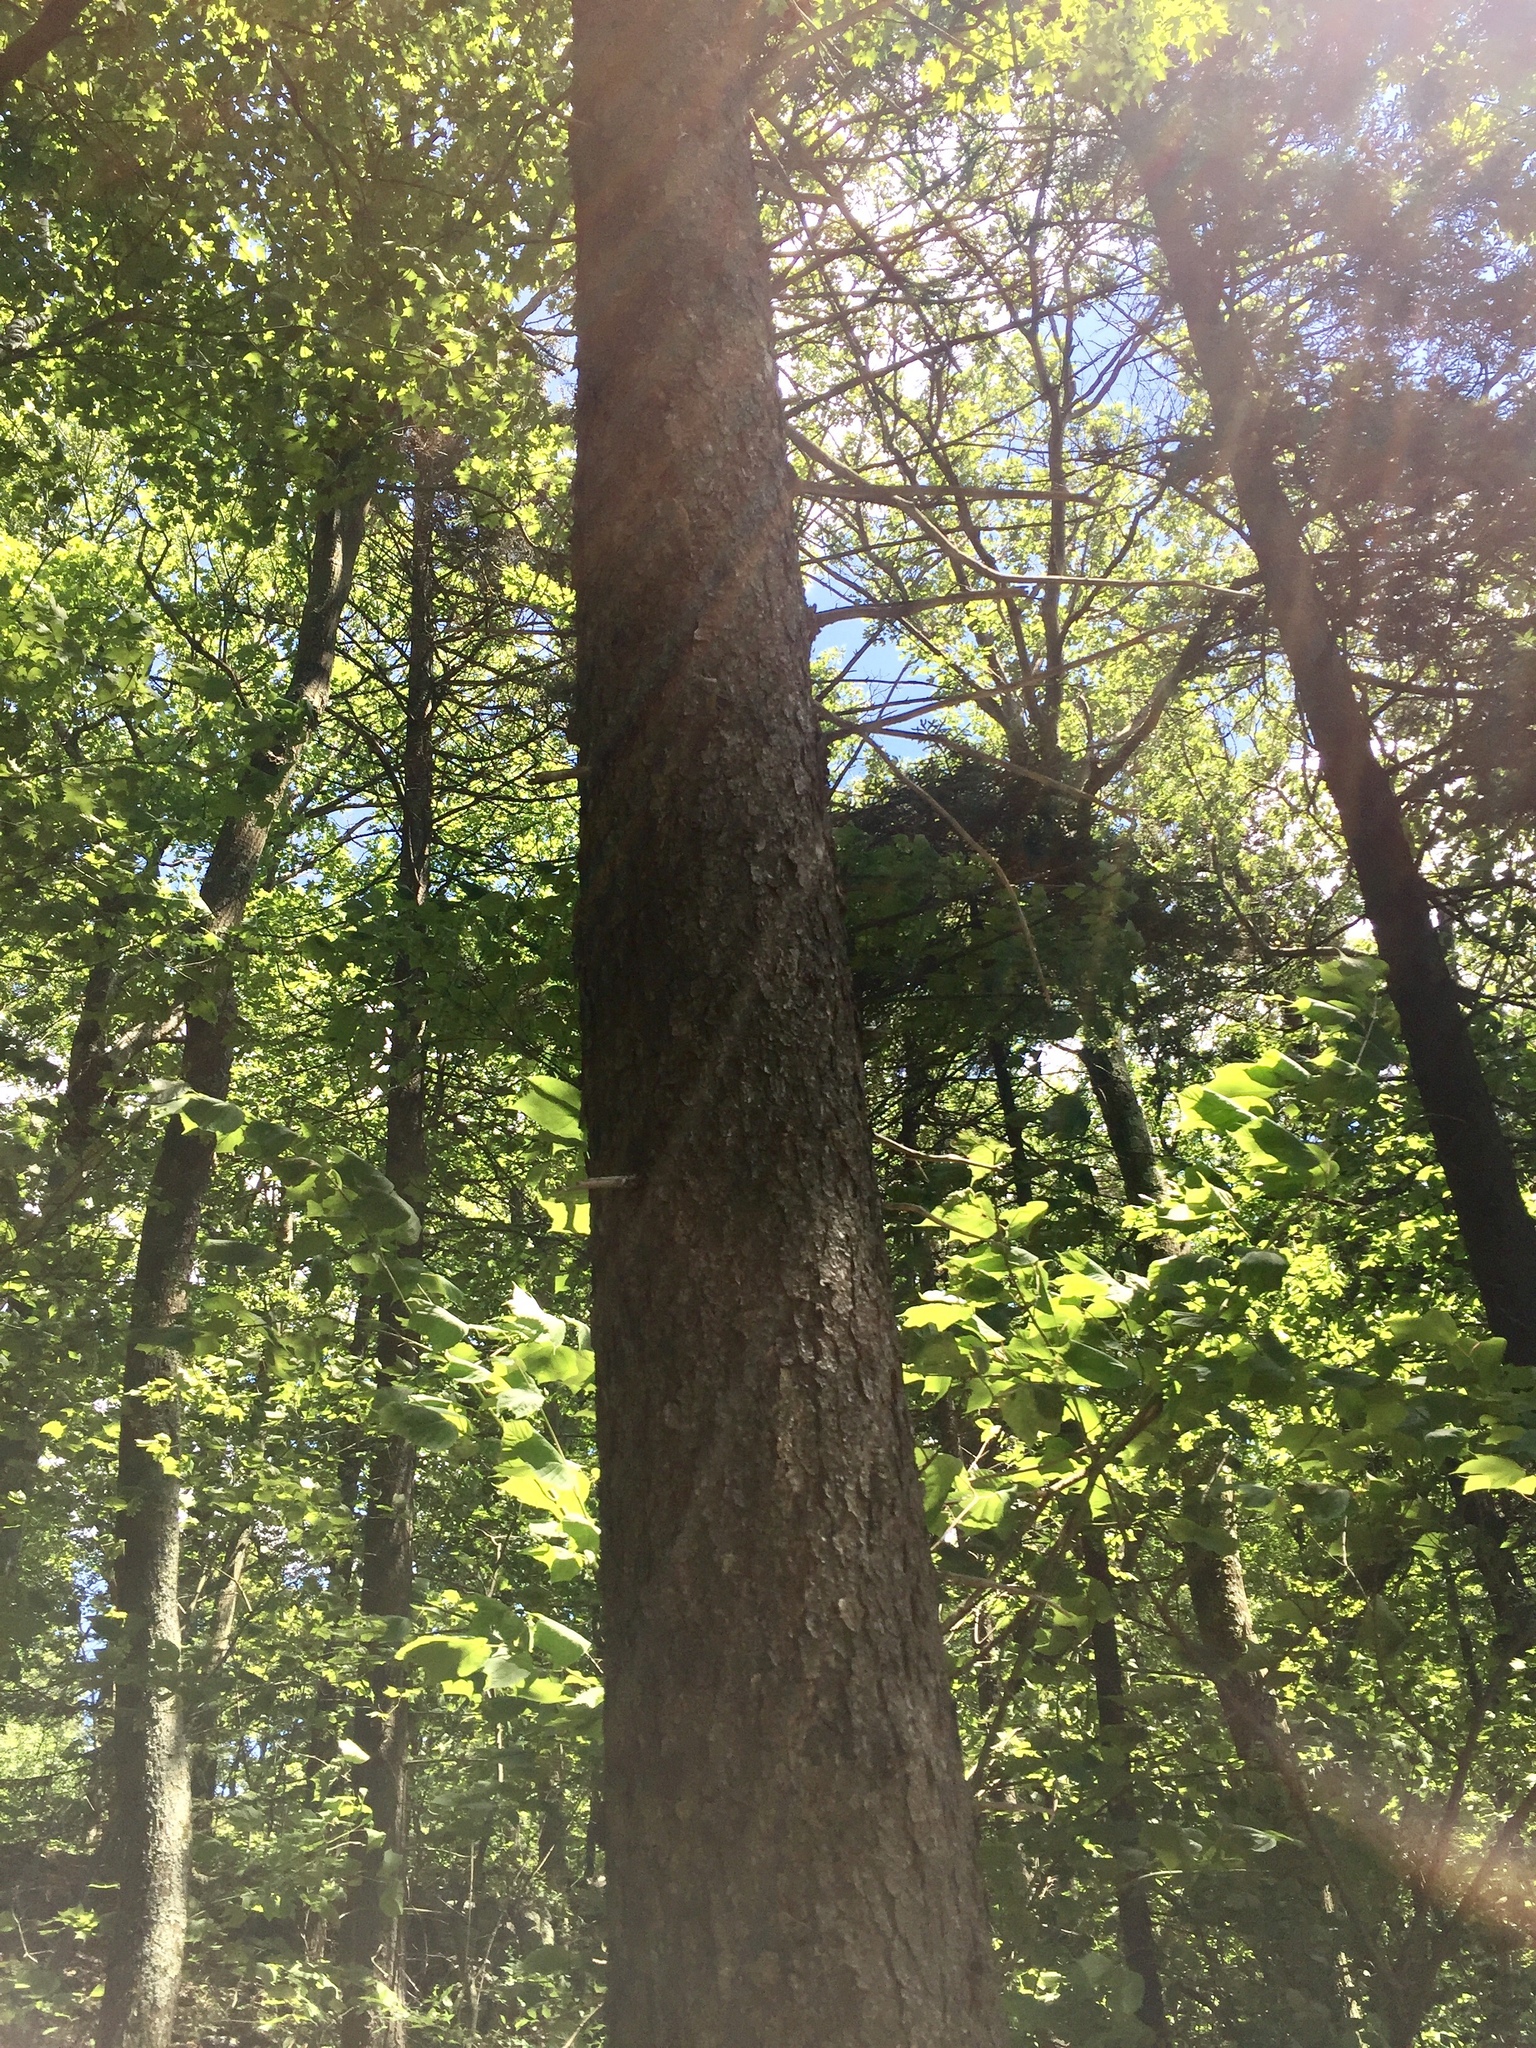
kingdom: Plantae
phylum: Tracheophyta
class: Pinopsida
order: Pinales
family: Pinaceae
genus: Picea
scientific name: Picea rubens
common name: Red spruce
